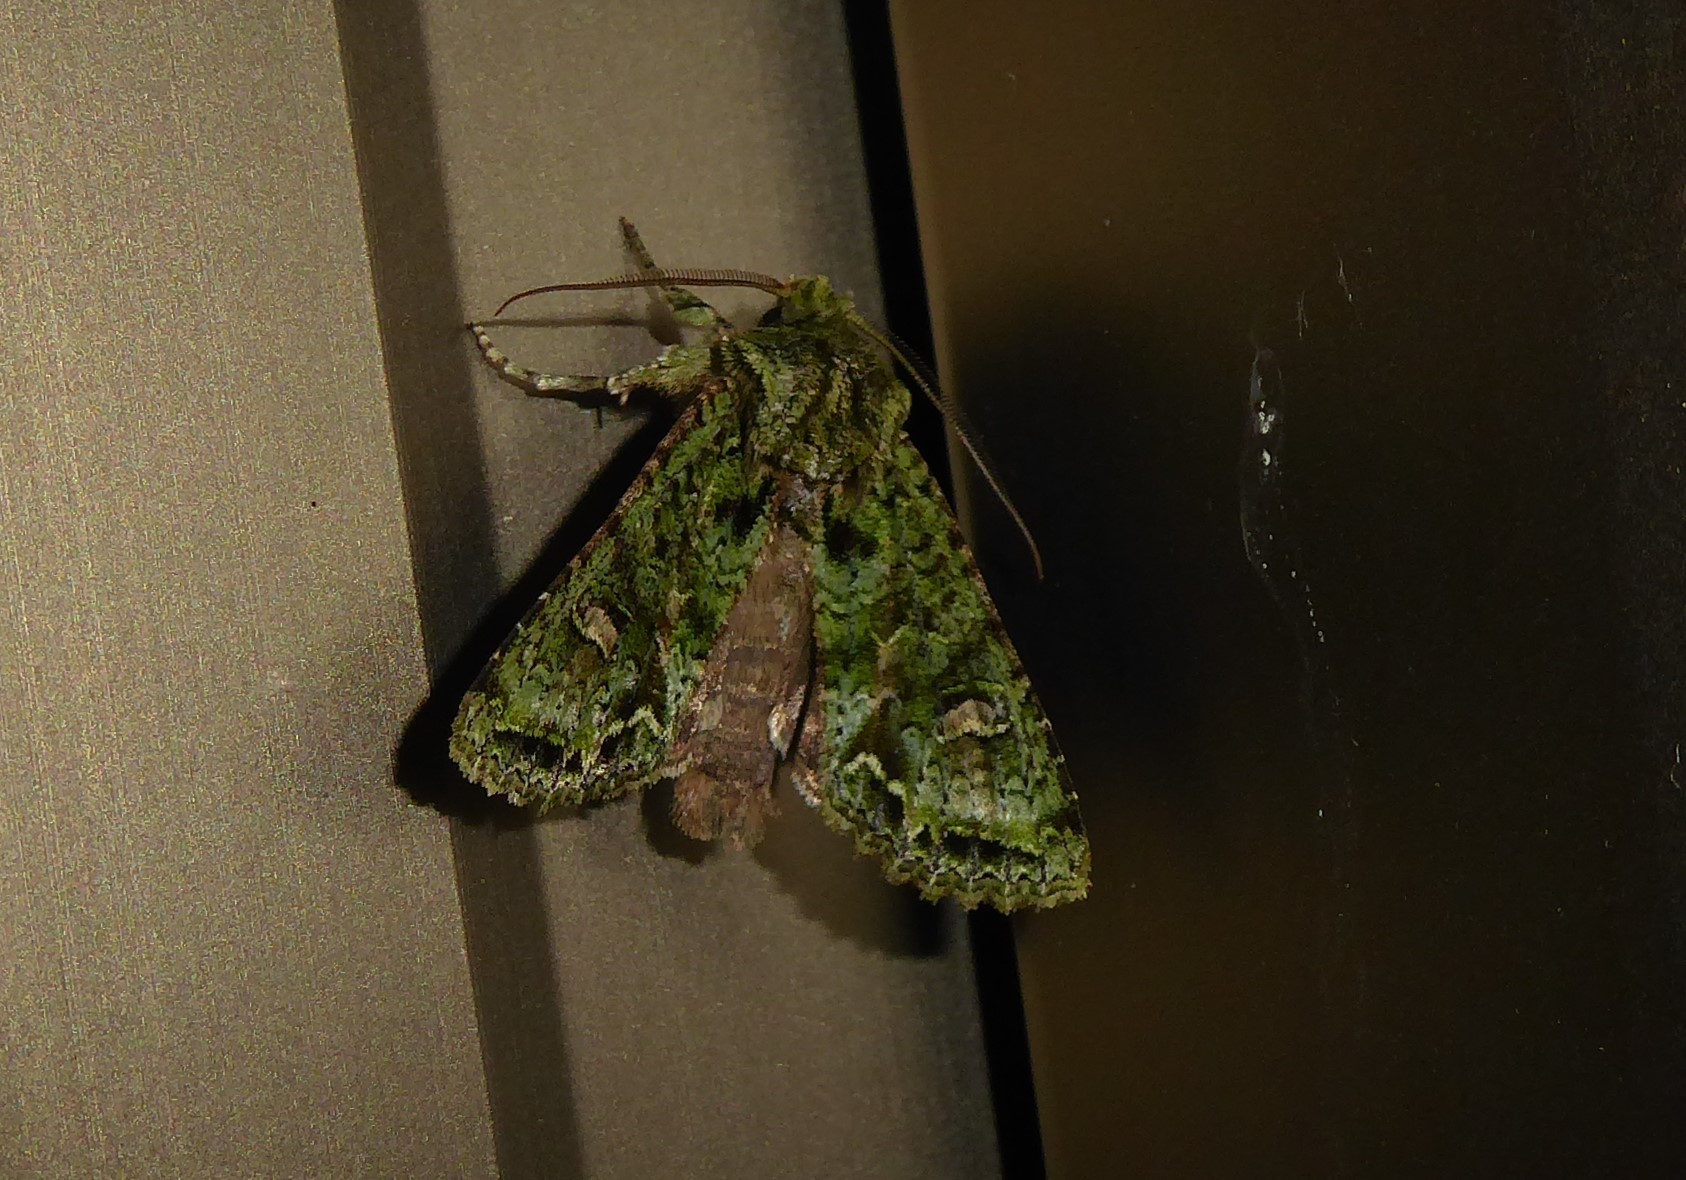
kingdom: Animalia
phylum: Arthropoda
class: Insecta
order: Lepidoptera
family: Noctuidae
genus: Ichneutica
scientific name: Ichneutica
